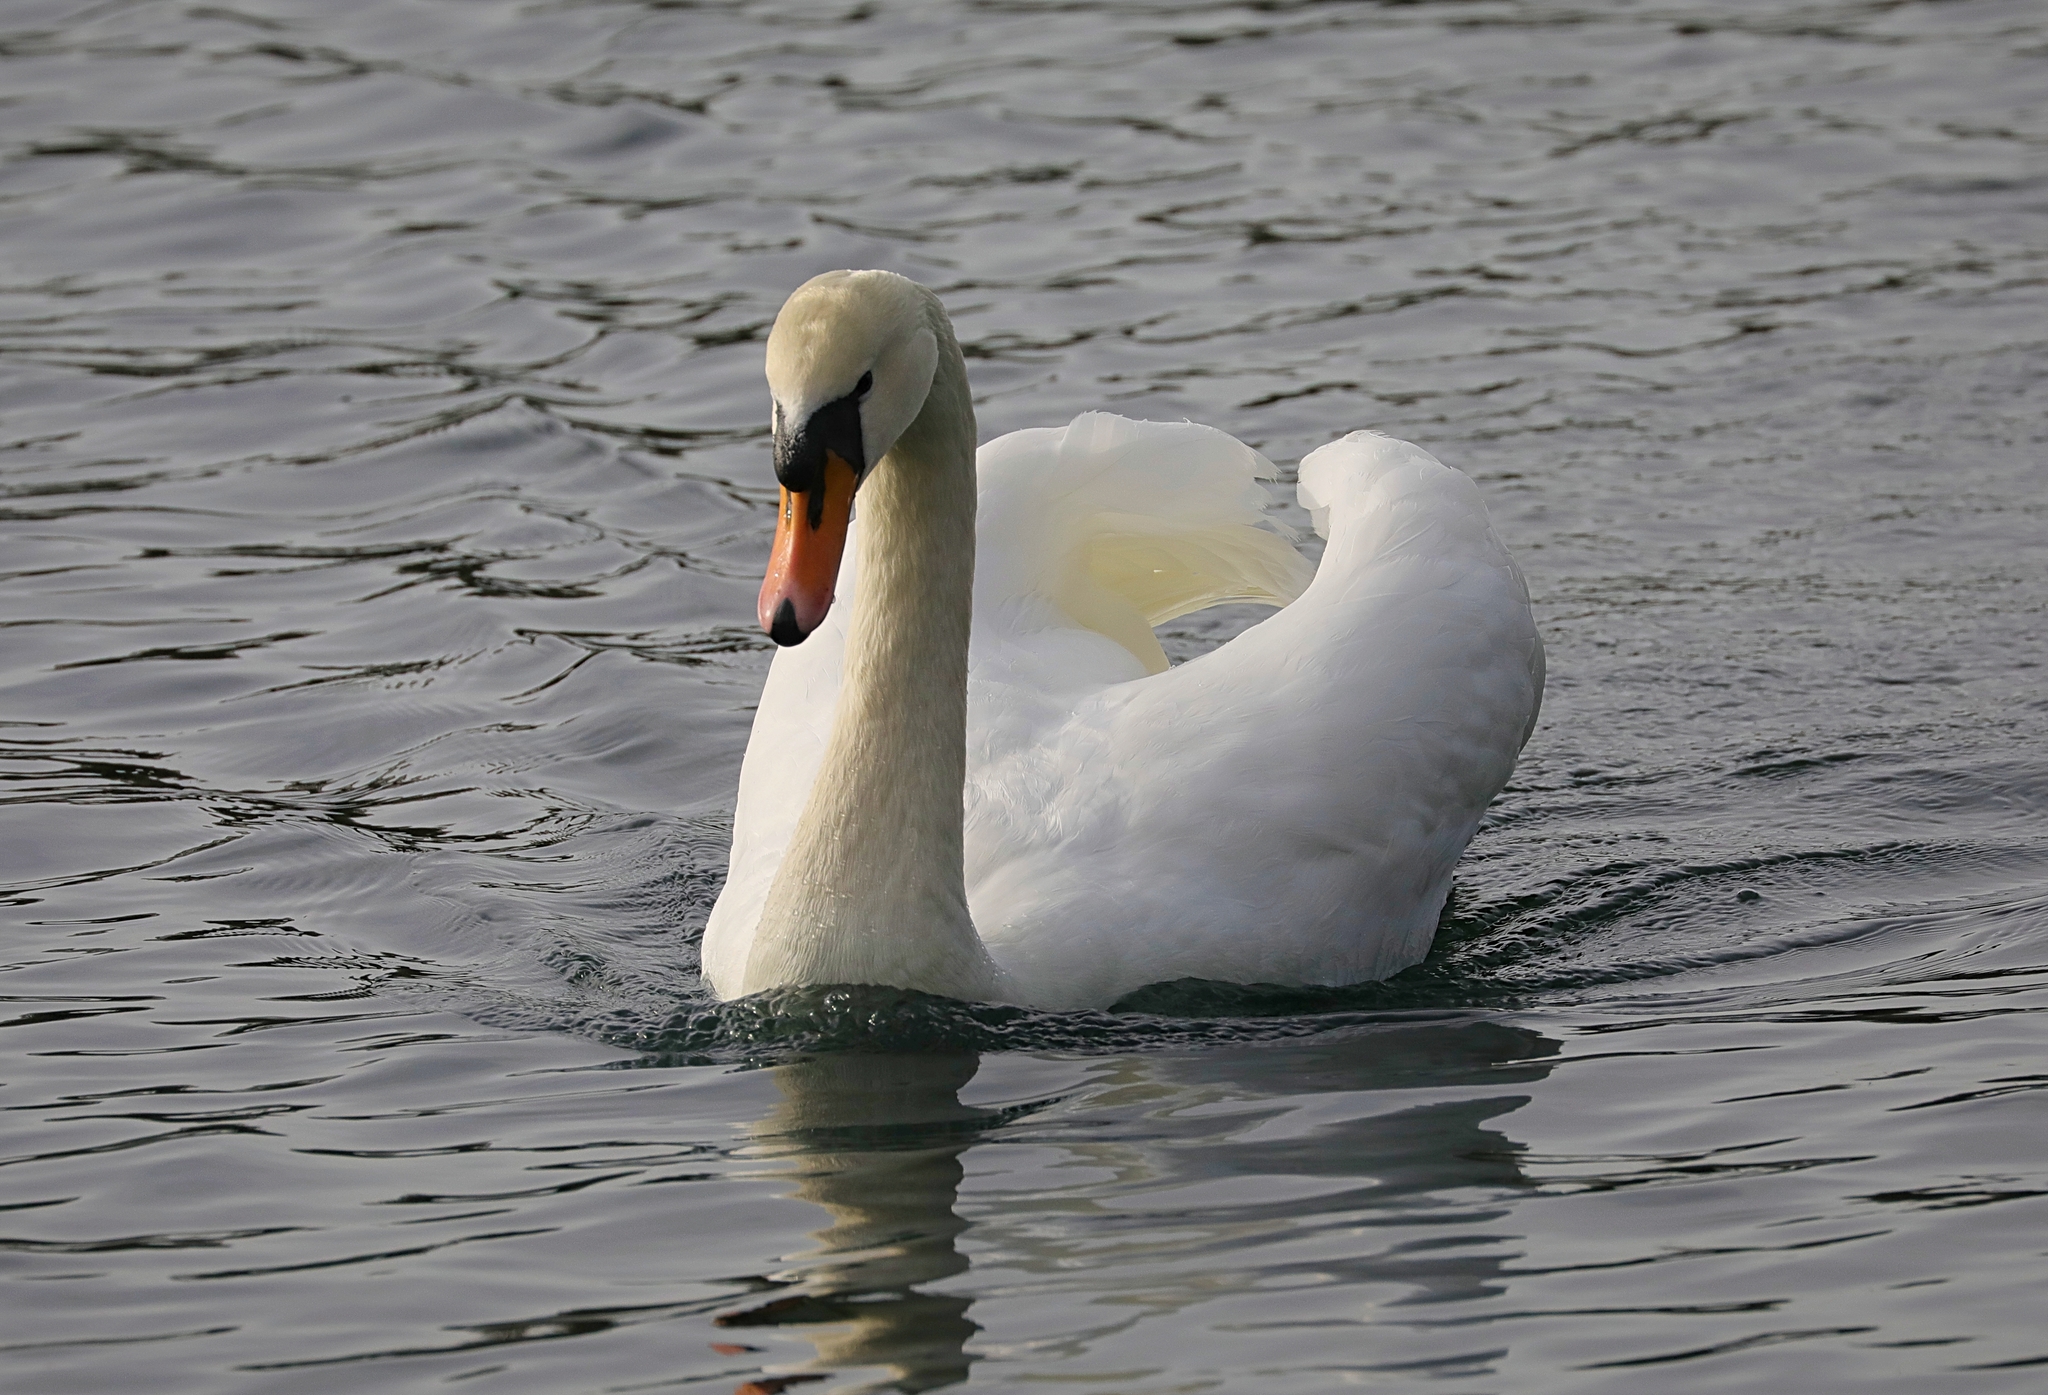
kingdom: Animalia
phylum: Chordata
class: Aves
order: Anseriformes
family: Anatidae
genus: Cygnus
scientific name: Cygnus olor
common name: Mute swan
